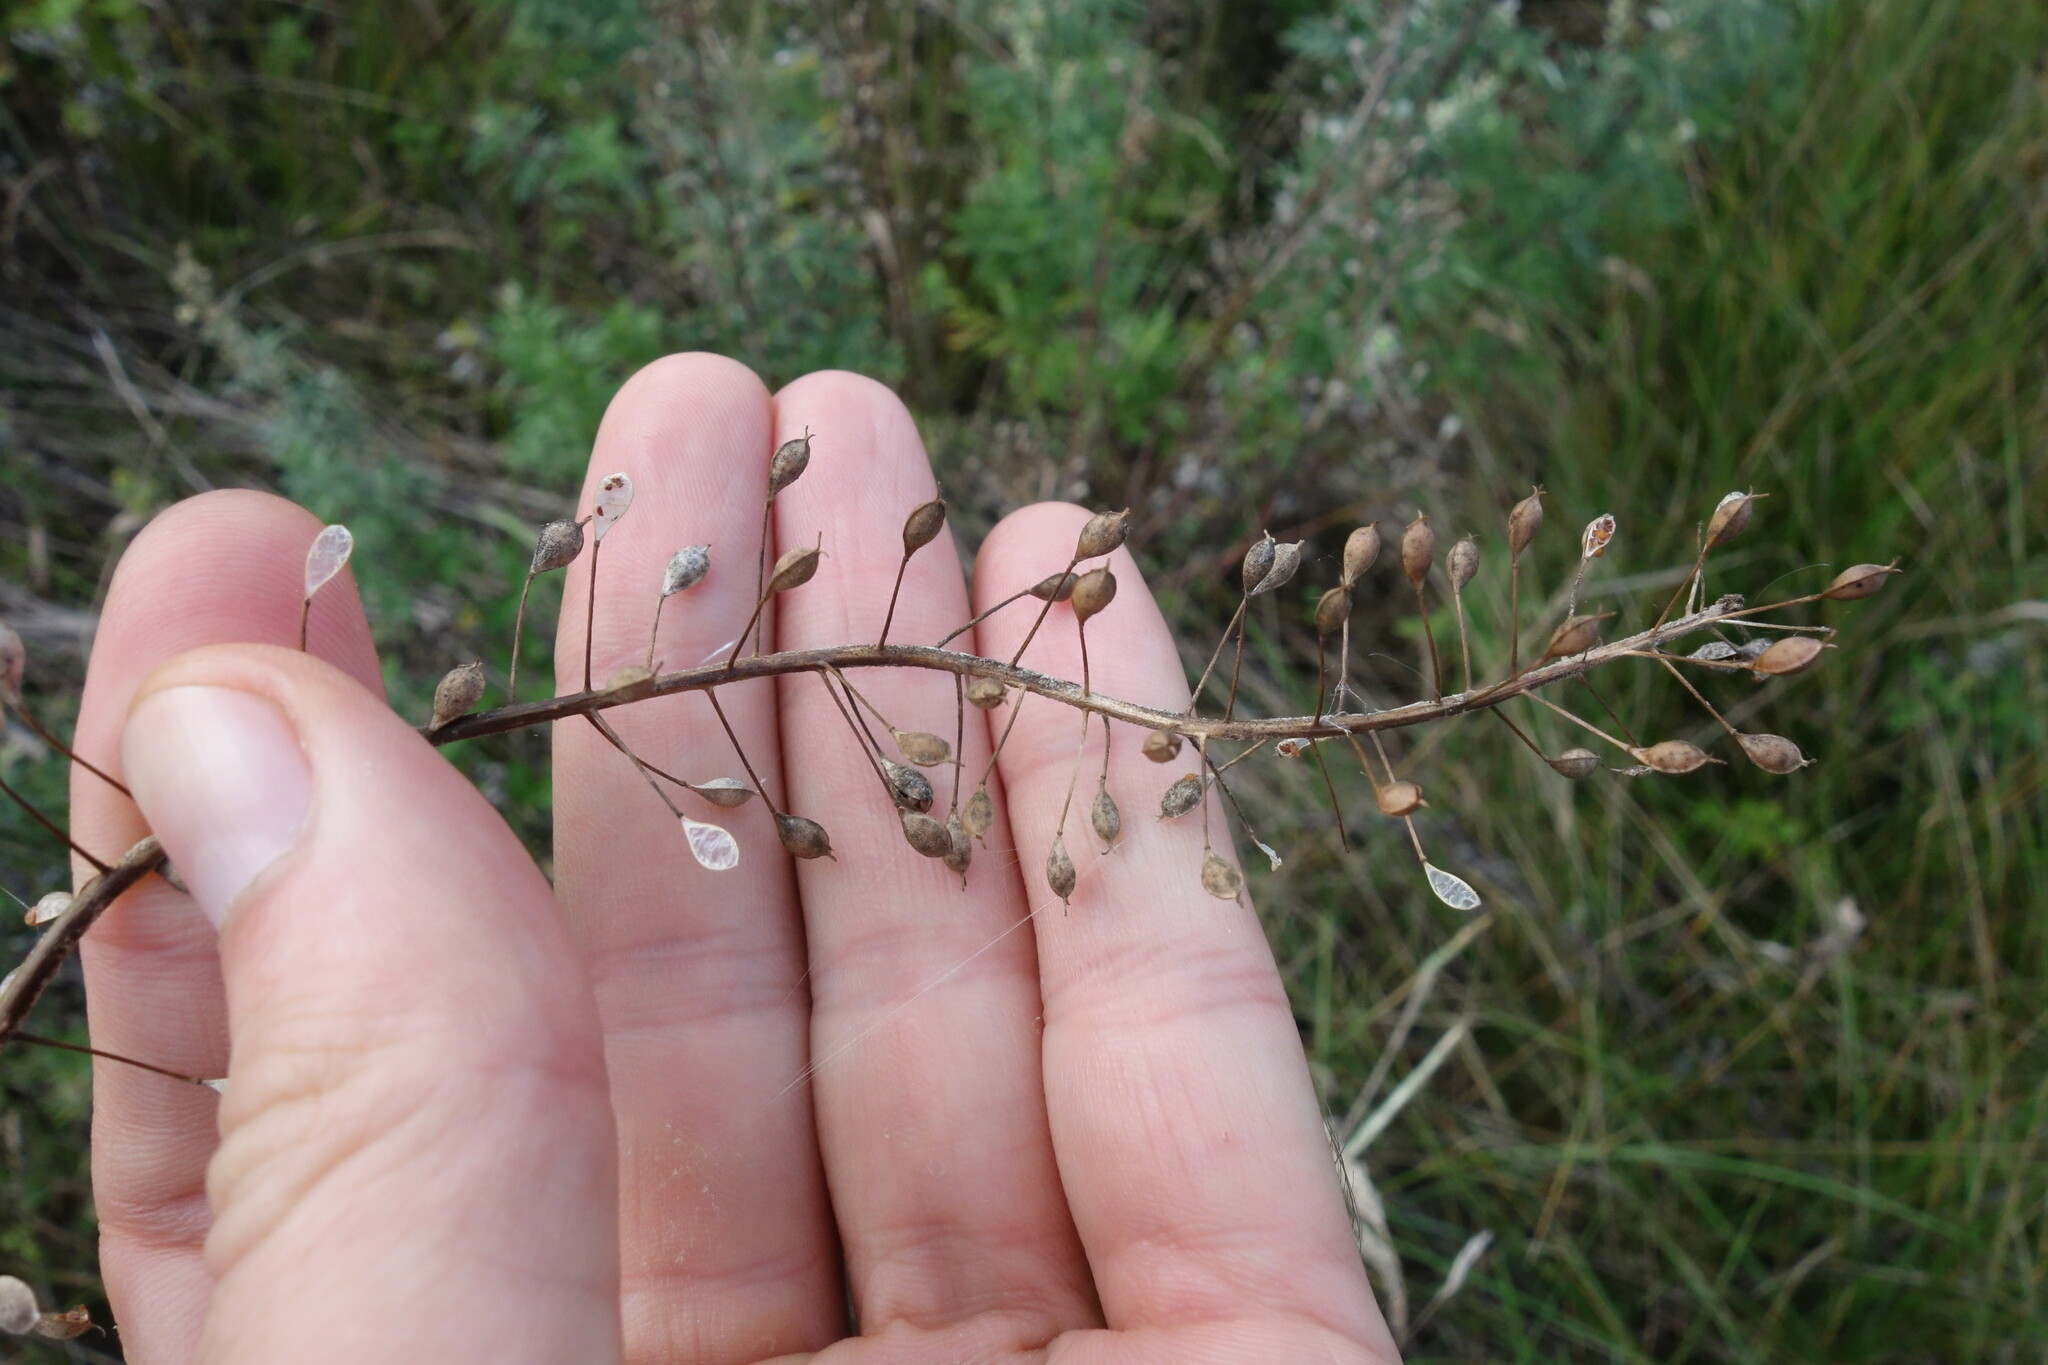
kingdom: Plantae
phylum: Tracheophyta
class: Magnoliopsida
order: Brassicales
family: Brassicaceae
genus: Camelina
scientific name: Camelina microcarpa
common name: Lesser gold-of-pleasure
